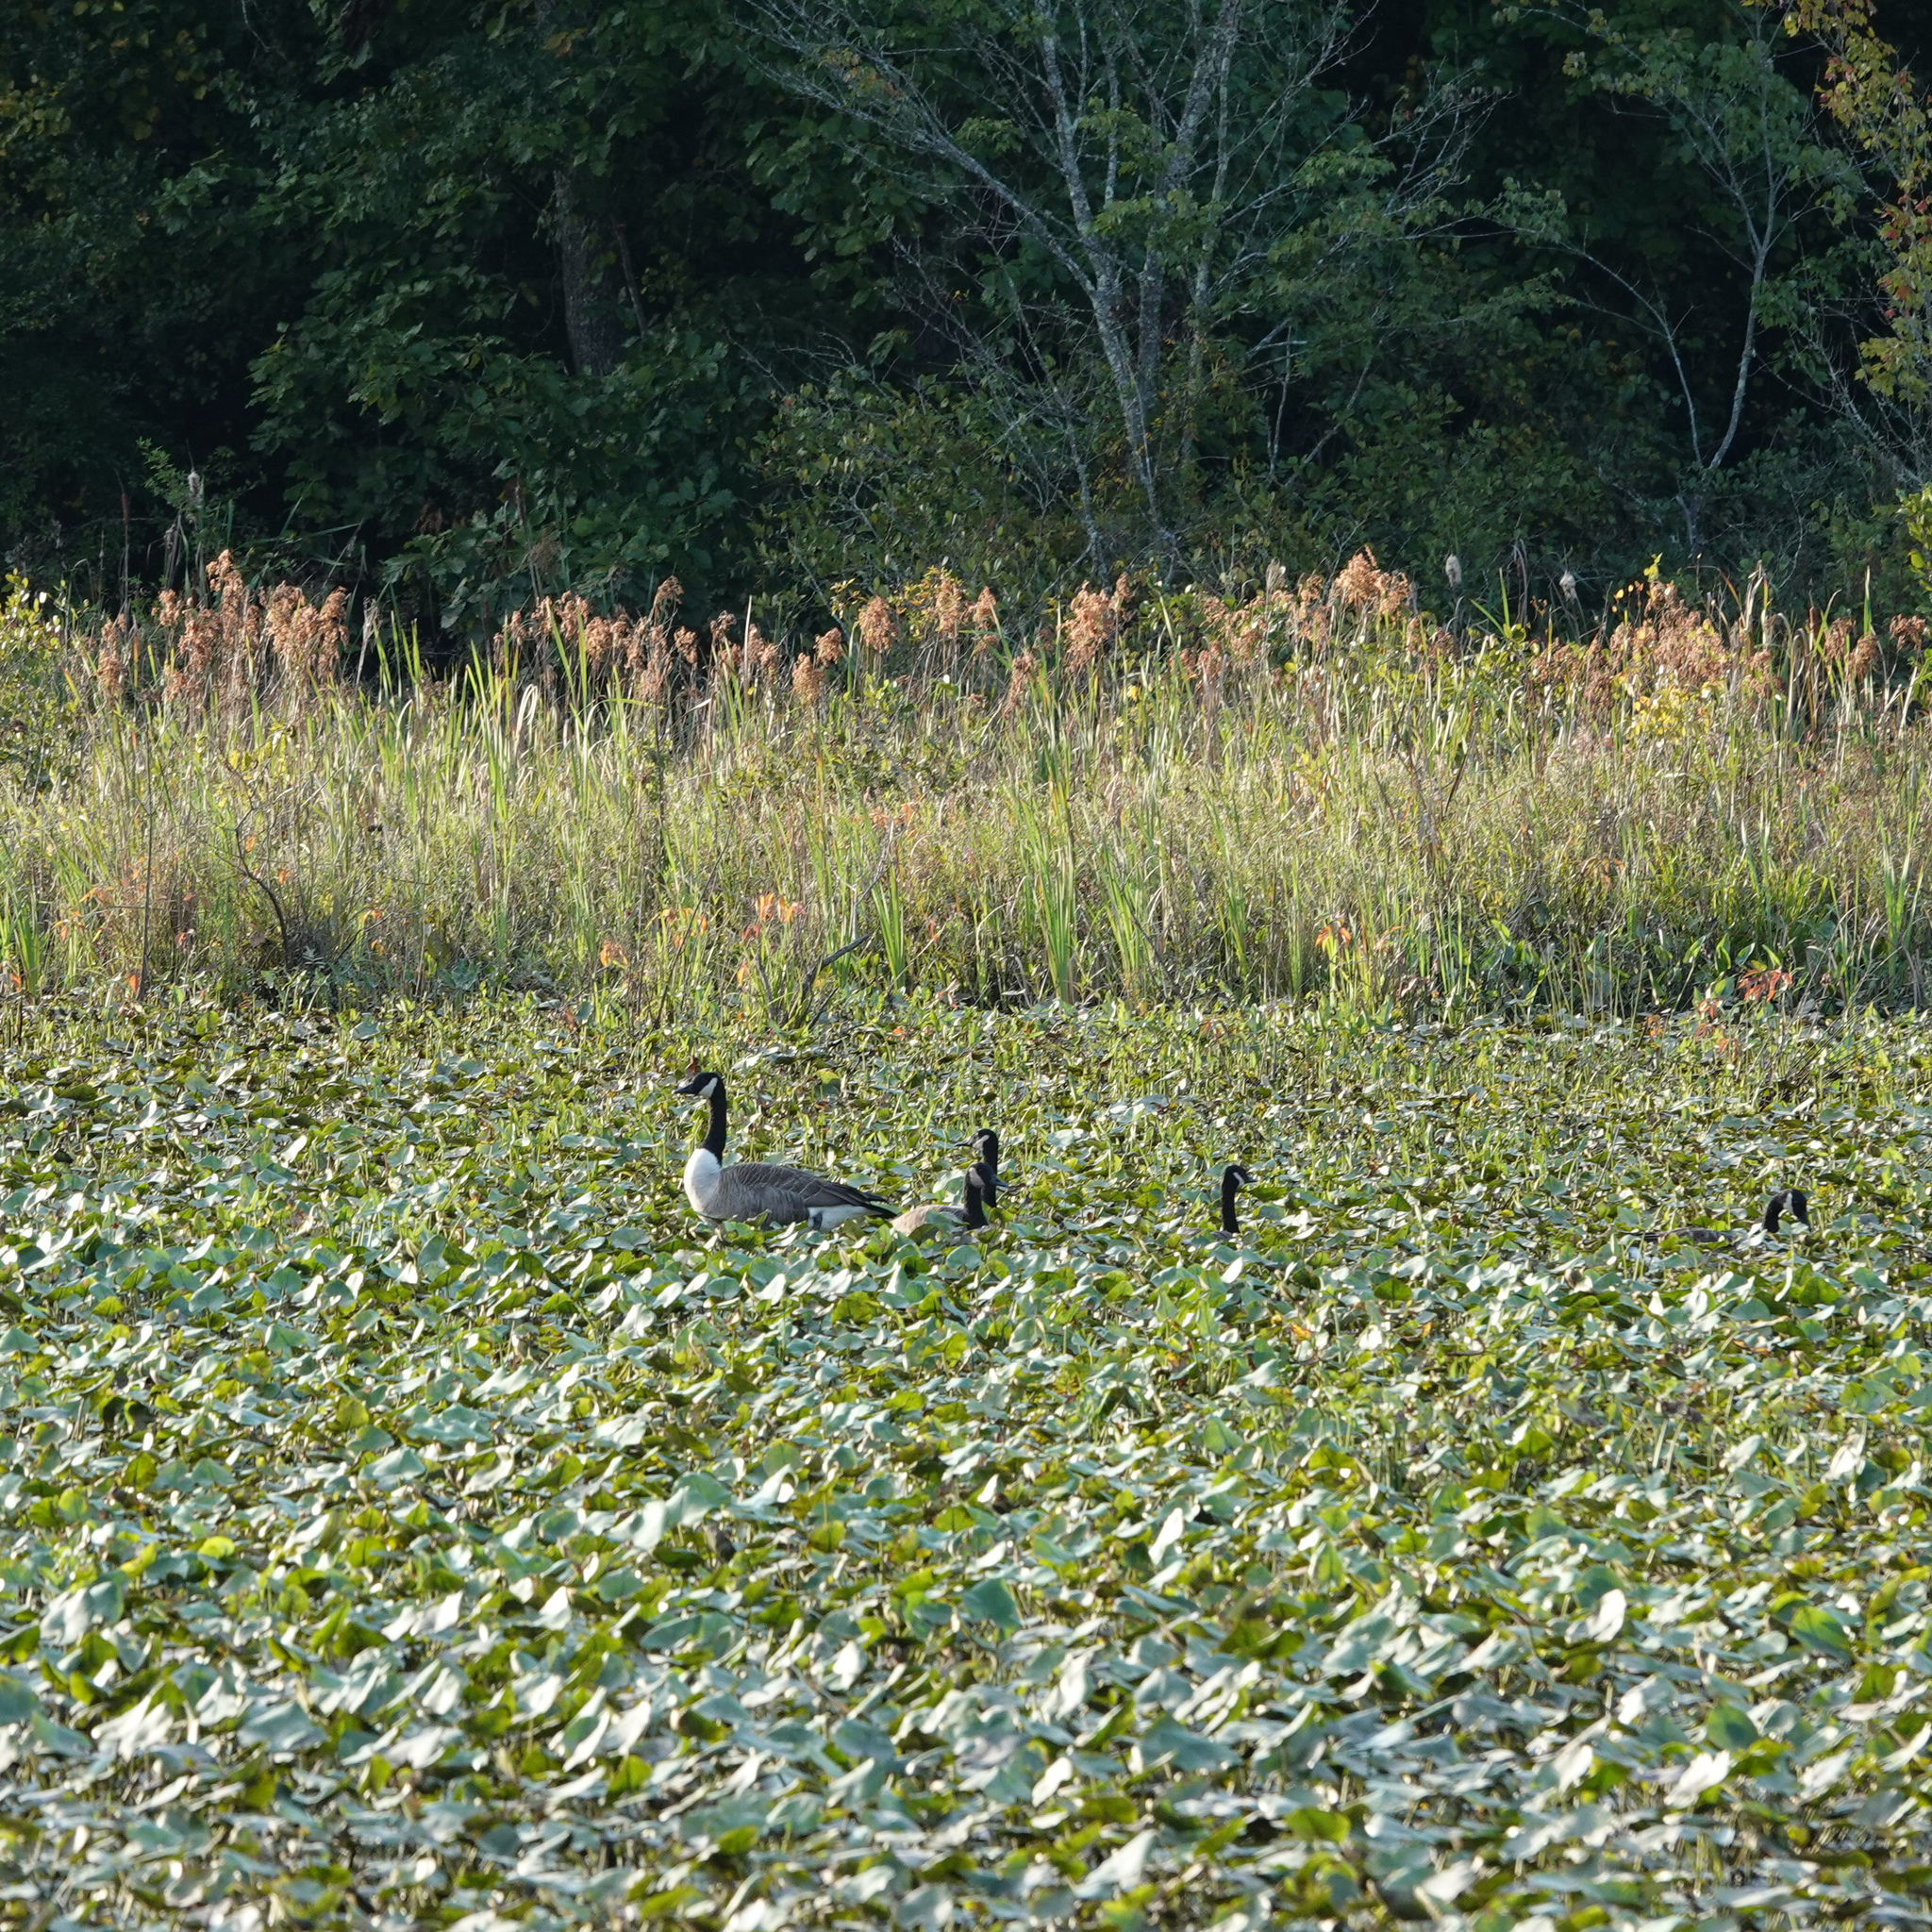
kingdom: Animalia
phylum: Chordata
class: Aves
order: Anseriformes
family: Anatidae
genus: Branta
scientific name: Branta canadensis
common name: Canada goose
